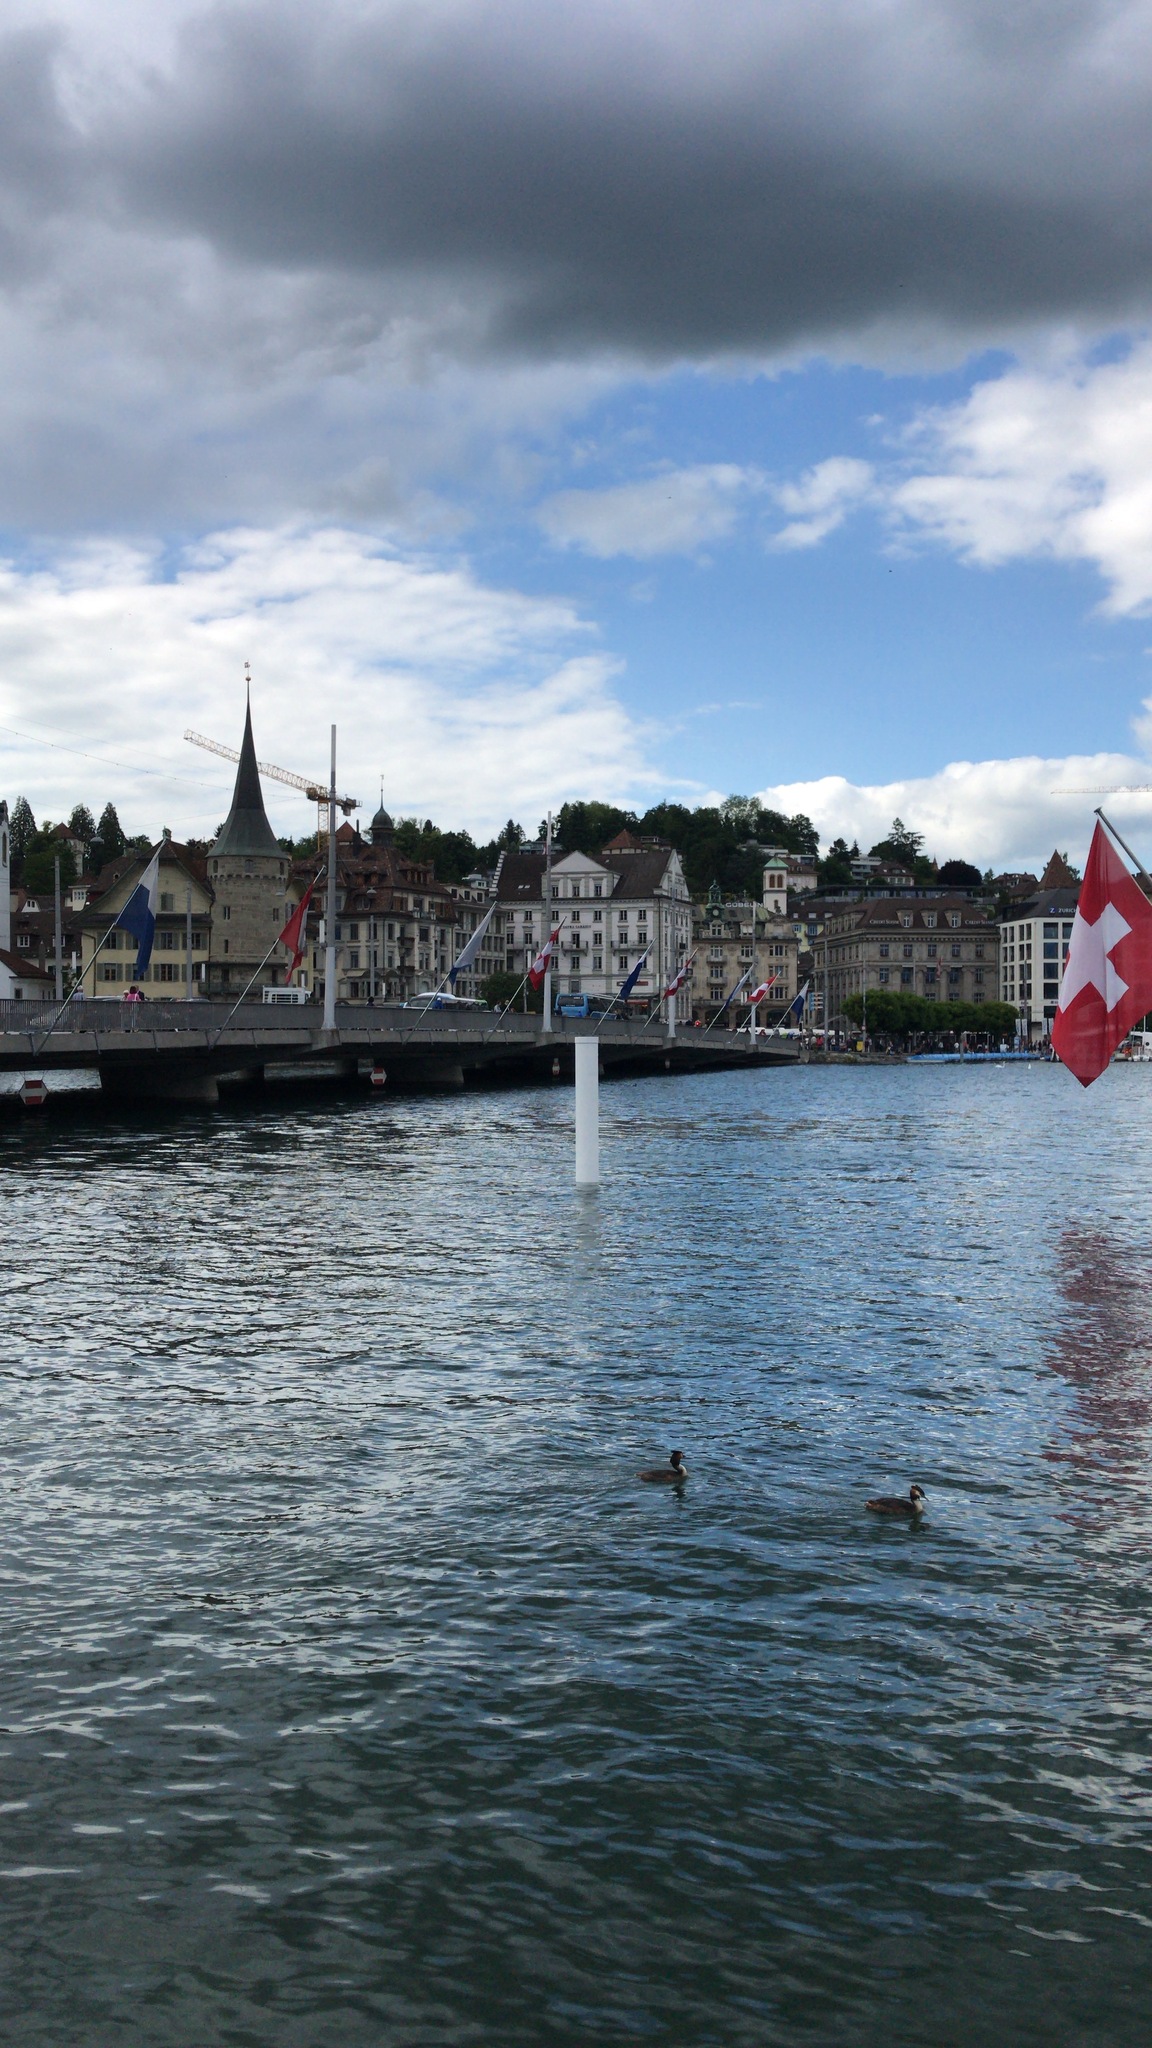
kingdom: Animalia
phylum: Chordata
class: Aves
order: Podicipediformes
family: Podicipedidae
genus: Podiceps
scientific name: Podiceps cristatus
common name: Great crested grebe
